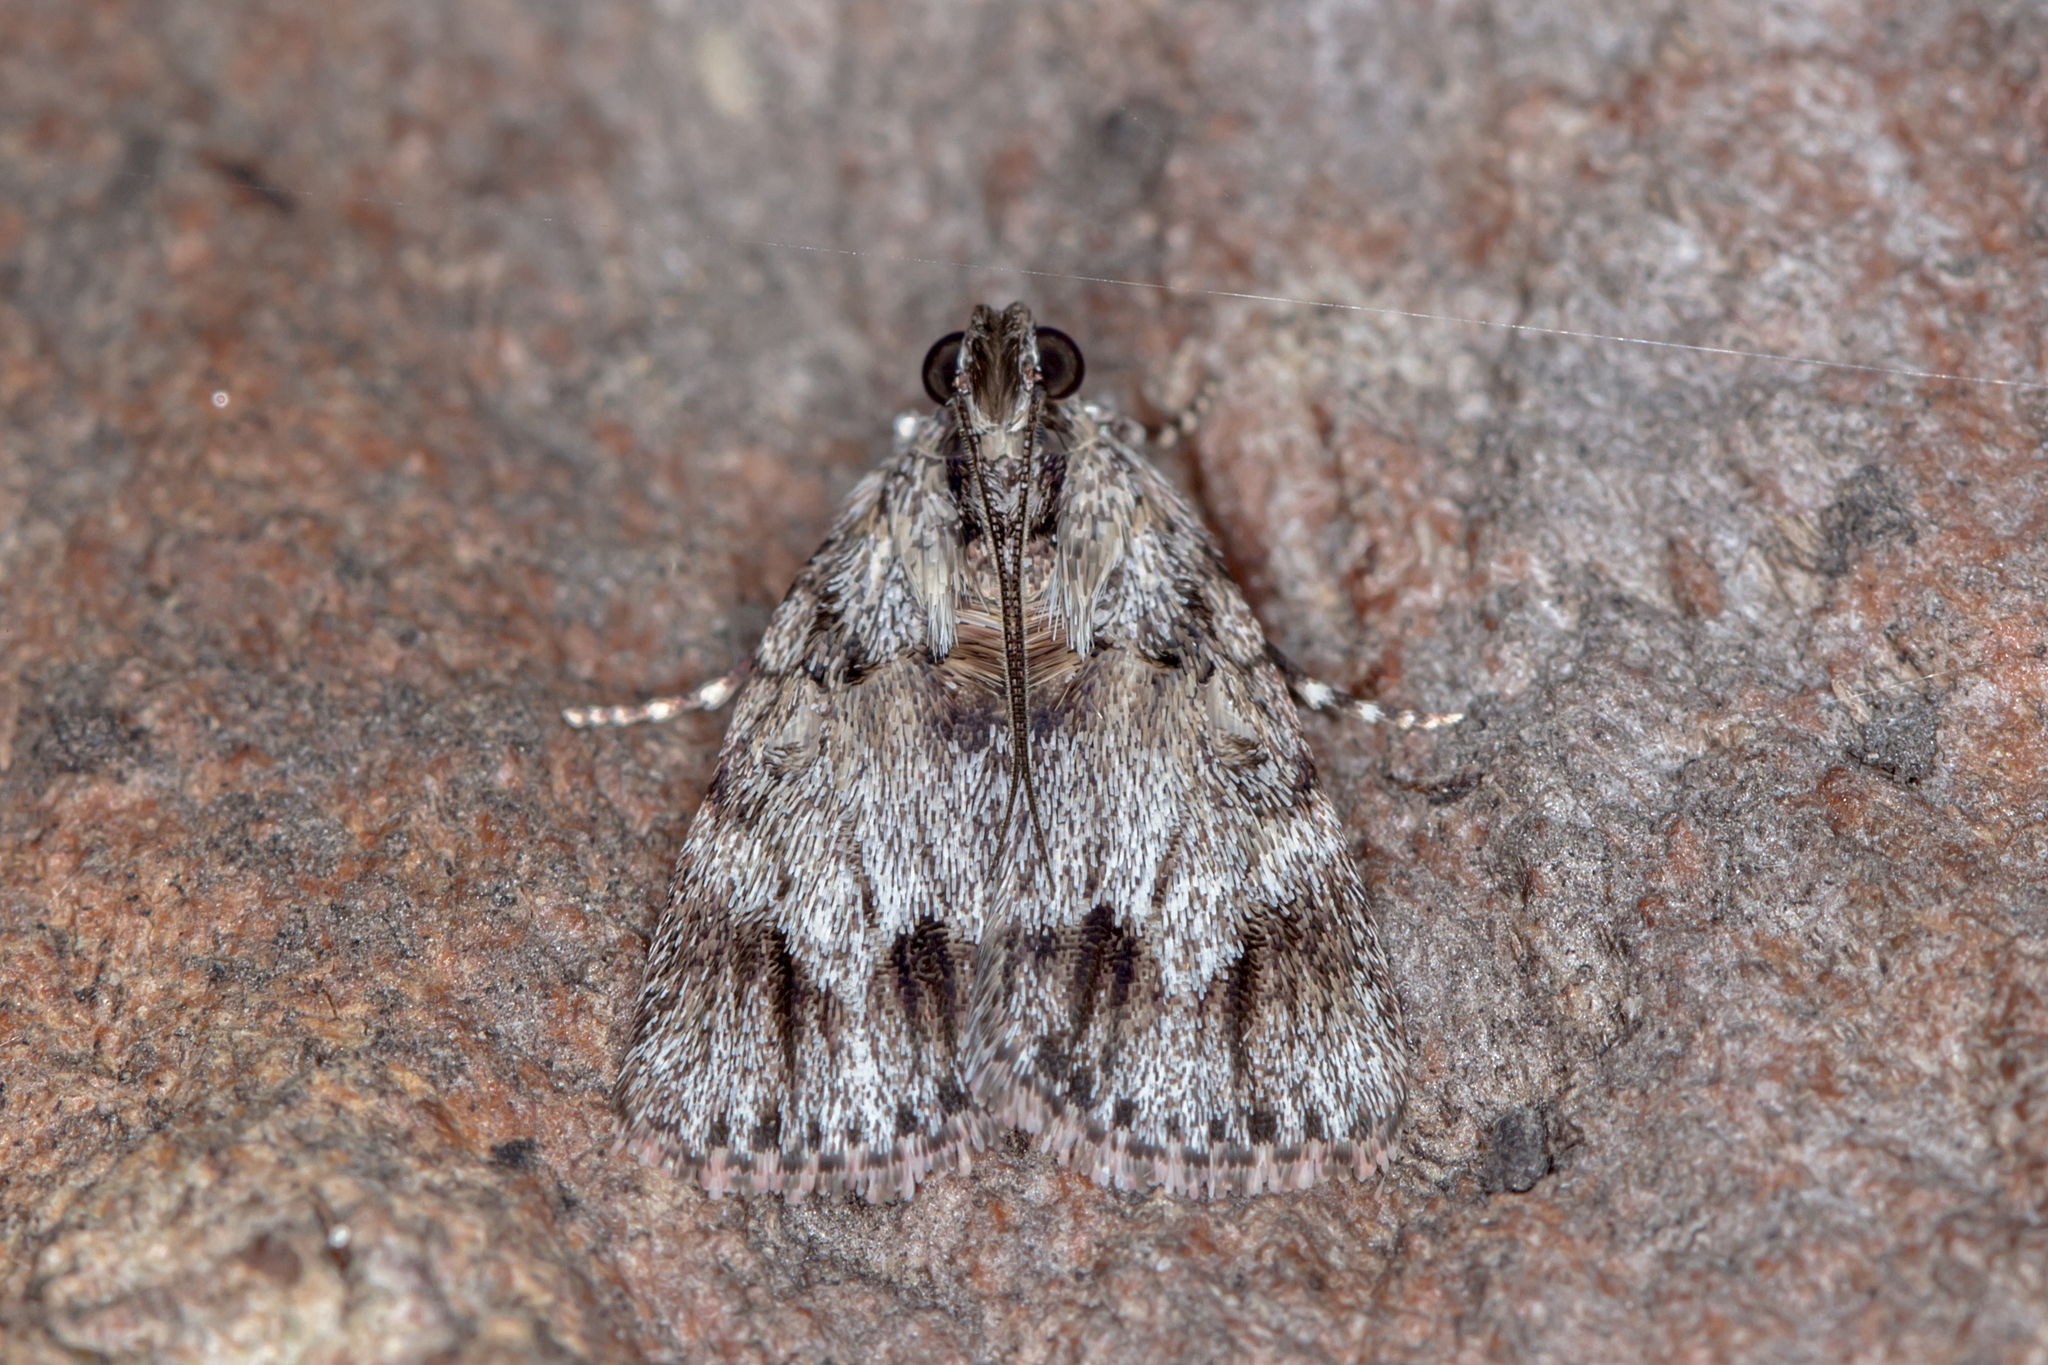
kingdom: Animalia
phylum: Arthropoda
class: Insecta
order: Lepidoptera
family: Pyralidae
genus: Spectrotrota
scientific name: Spectrotrota fimbrialis
